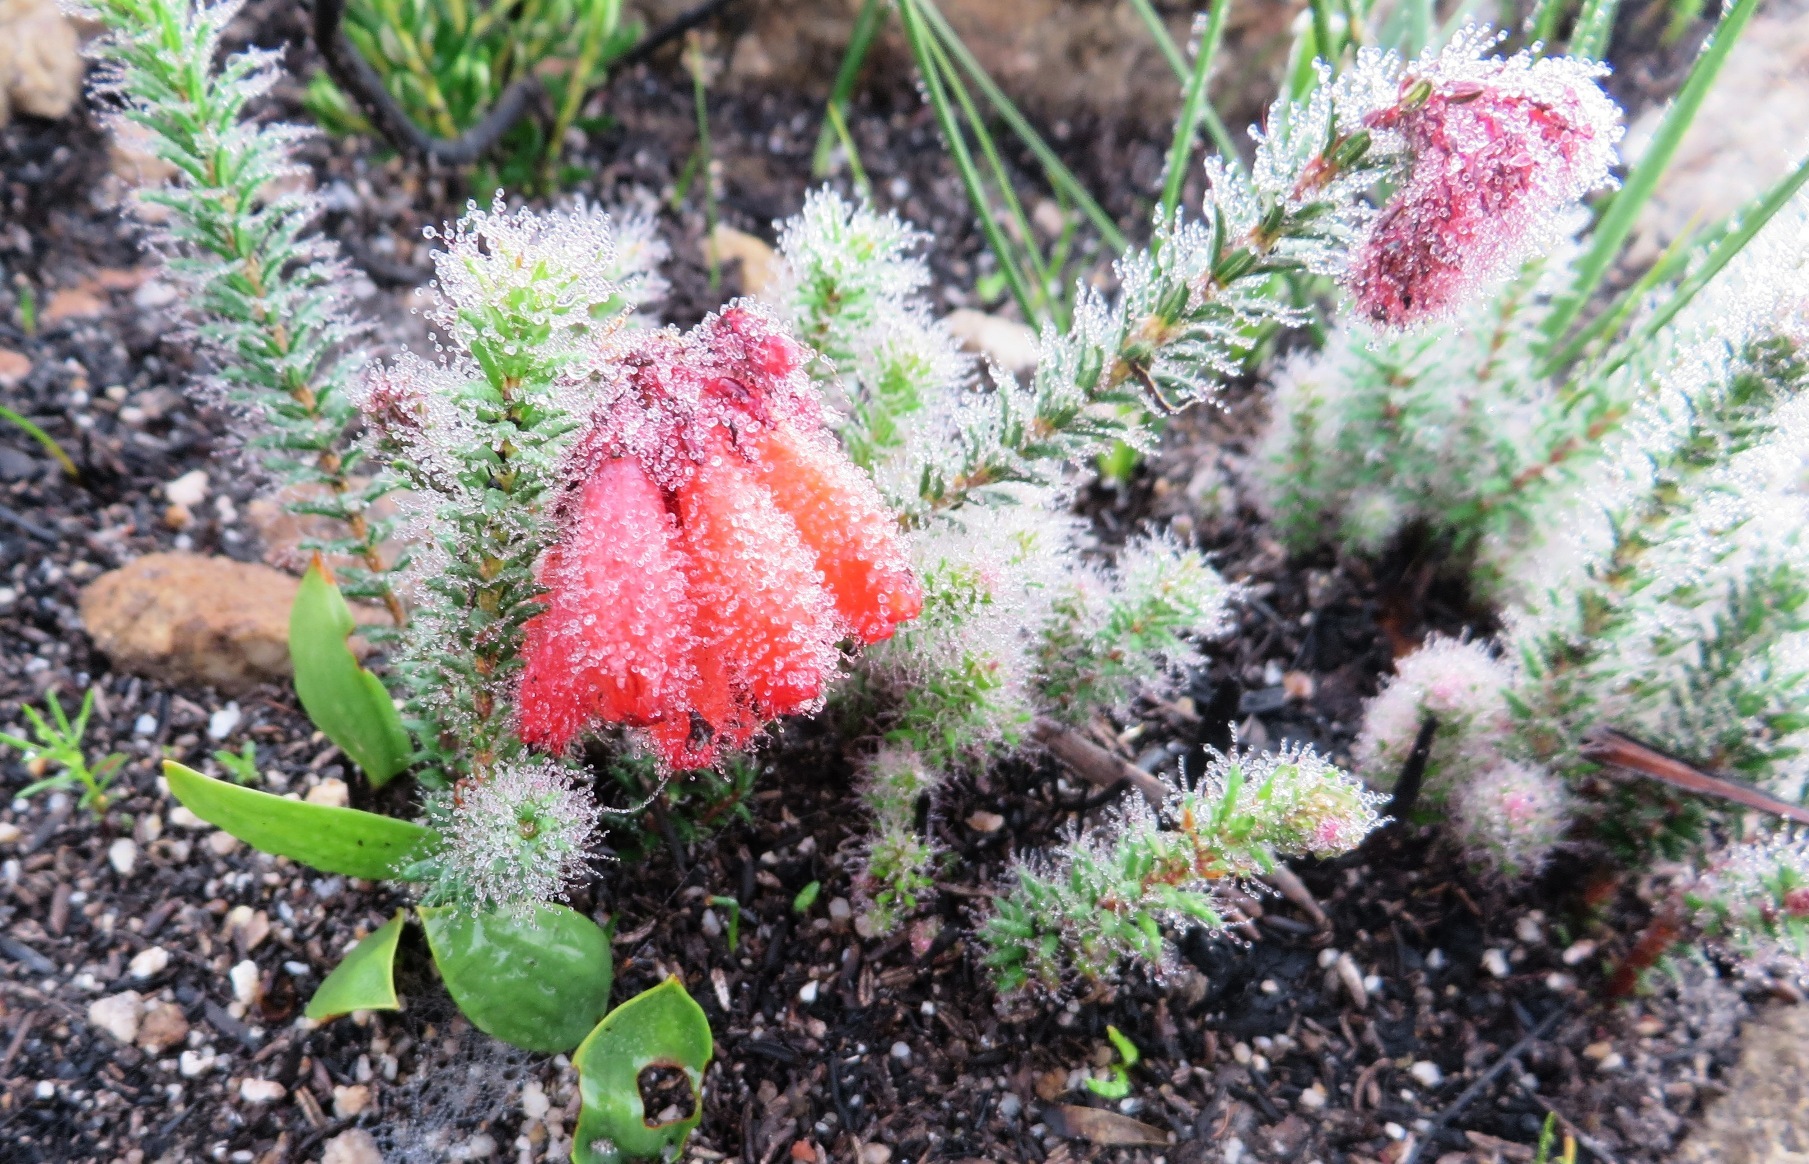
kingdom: Plantae
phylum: Tracheophyta
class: Magnoliopsida
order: Ericales
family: Ericaceae
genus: Erica
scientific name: Erica cerinthoides
